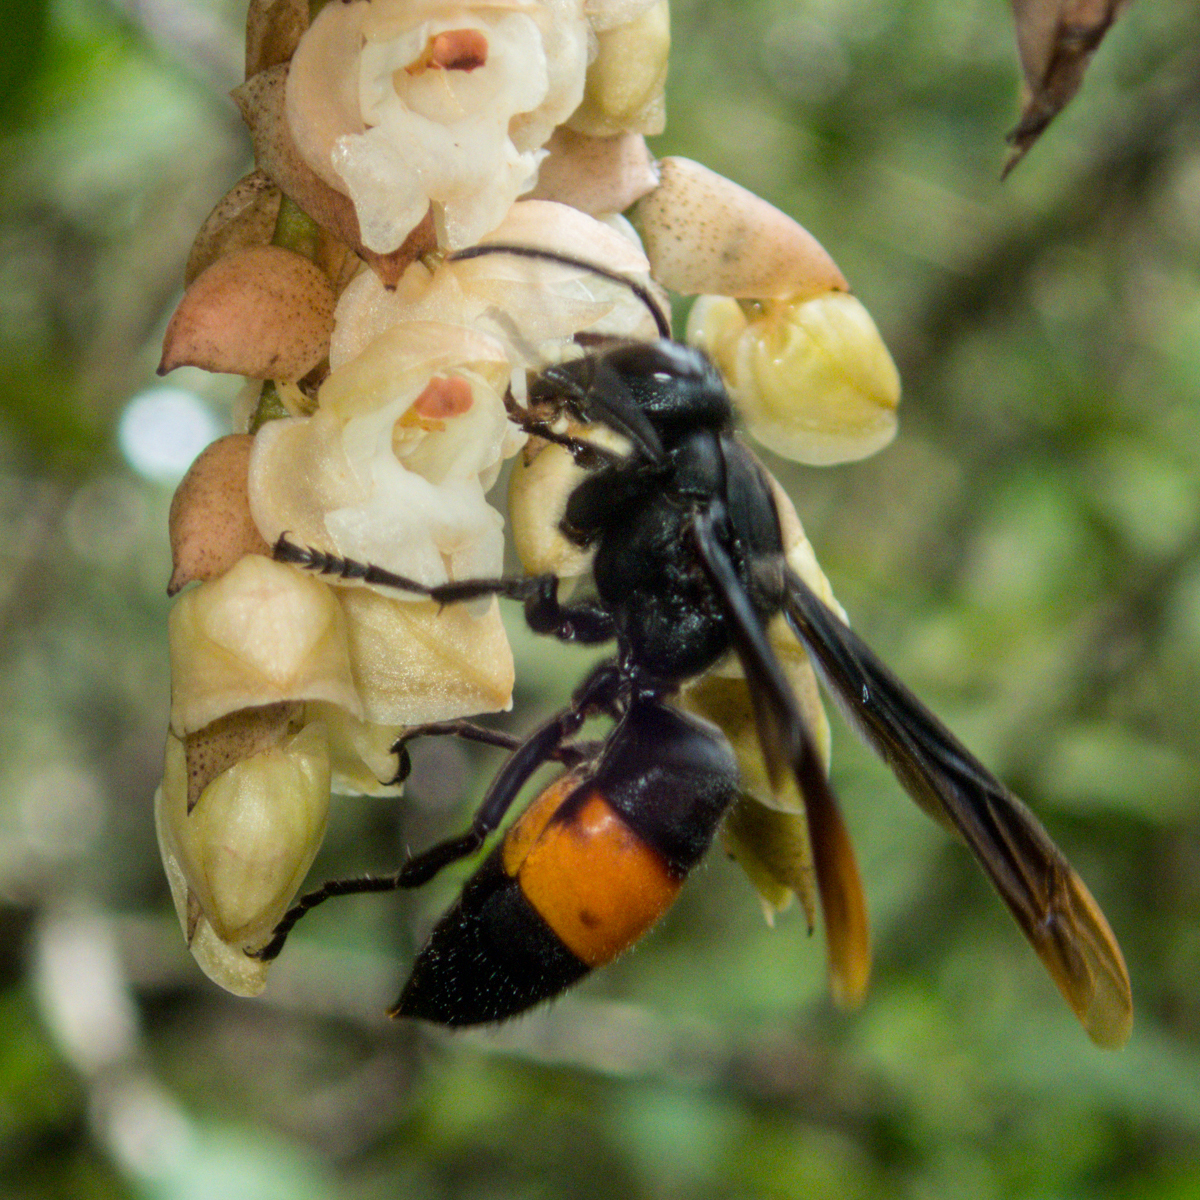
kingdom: Animalia
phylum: Arthropoda
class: Insecta
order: Hymenoptera
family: Vespidae
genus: Vespa
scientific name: Vespa tropica
